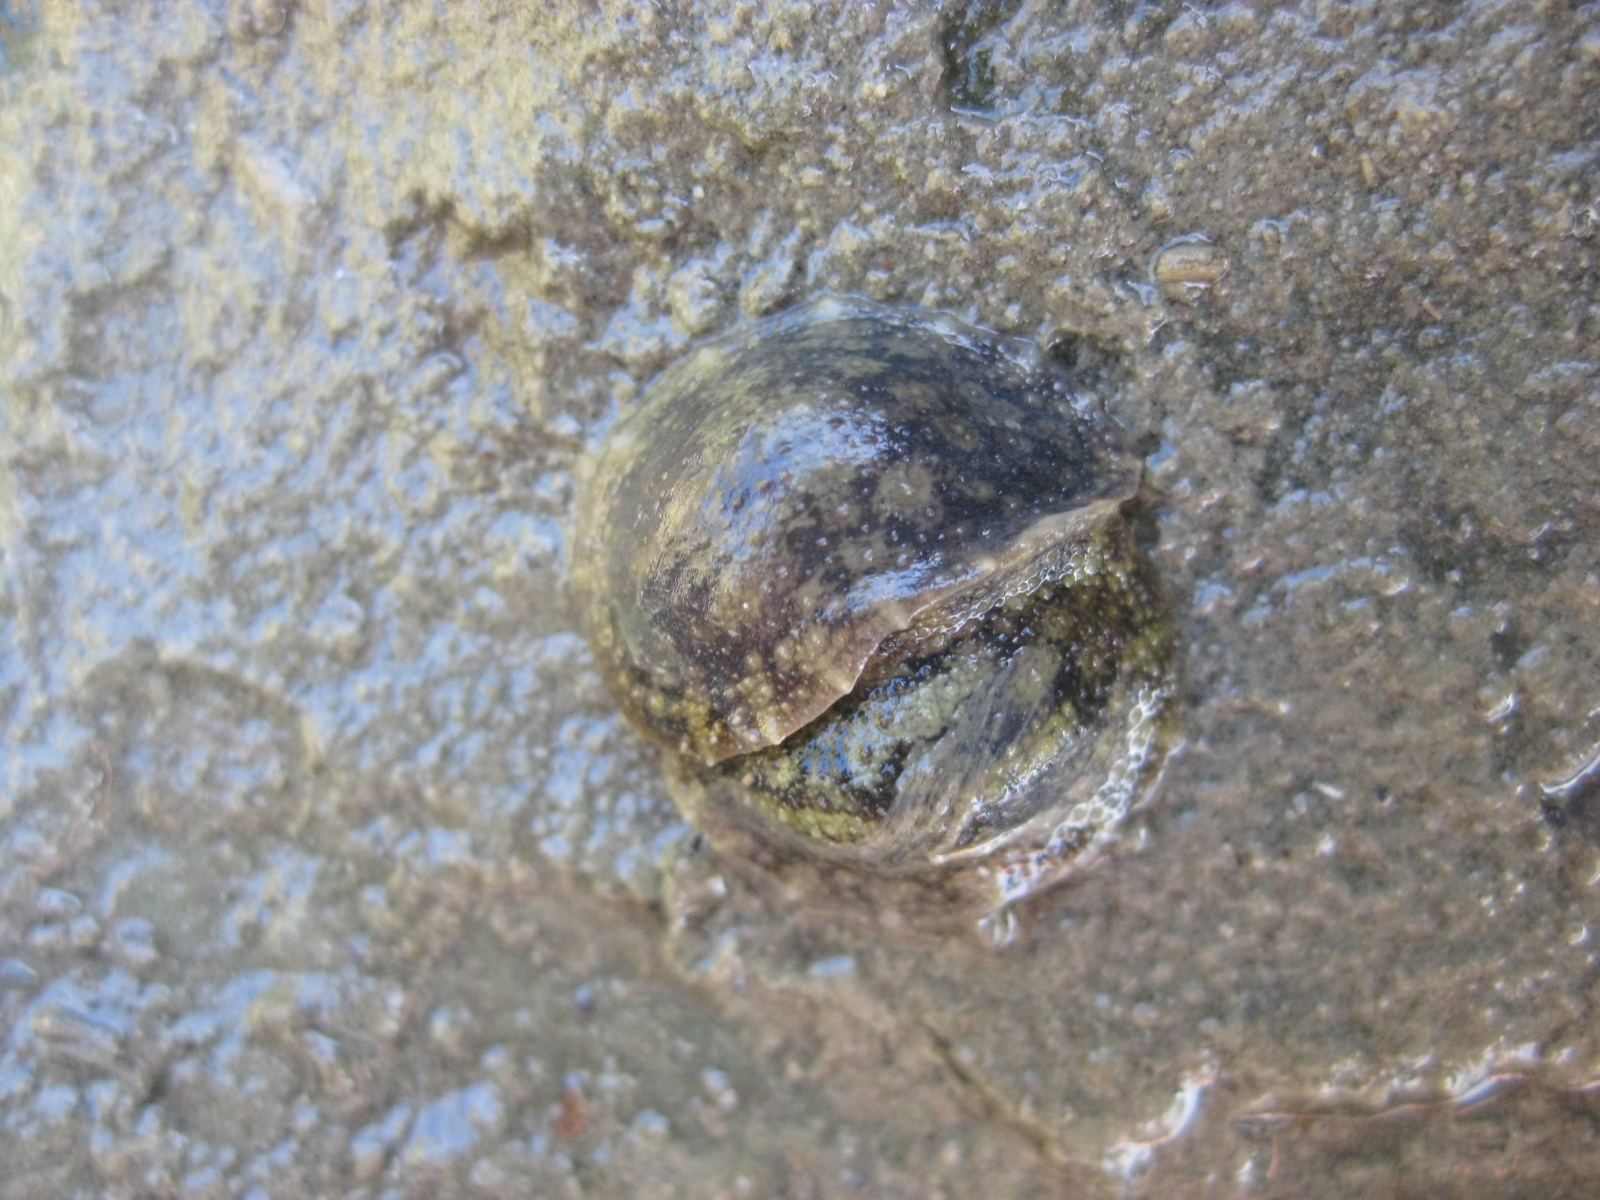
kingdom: Animalia
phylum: Mollusca
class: Gastropoda
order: Systellommatophora
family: Onchidiidae
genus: Onchidella
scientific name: Onchidella nigricans
